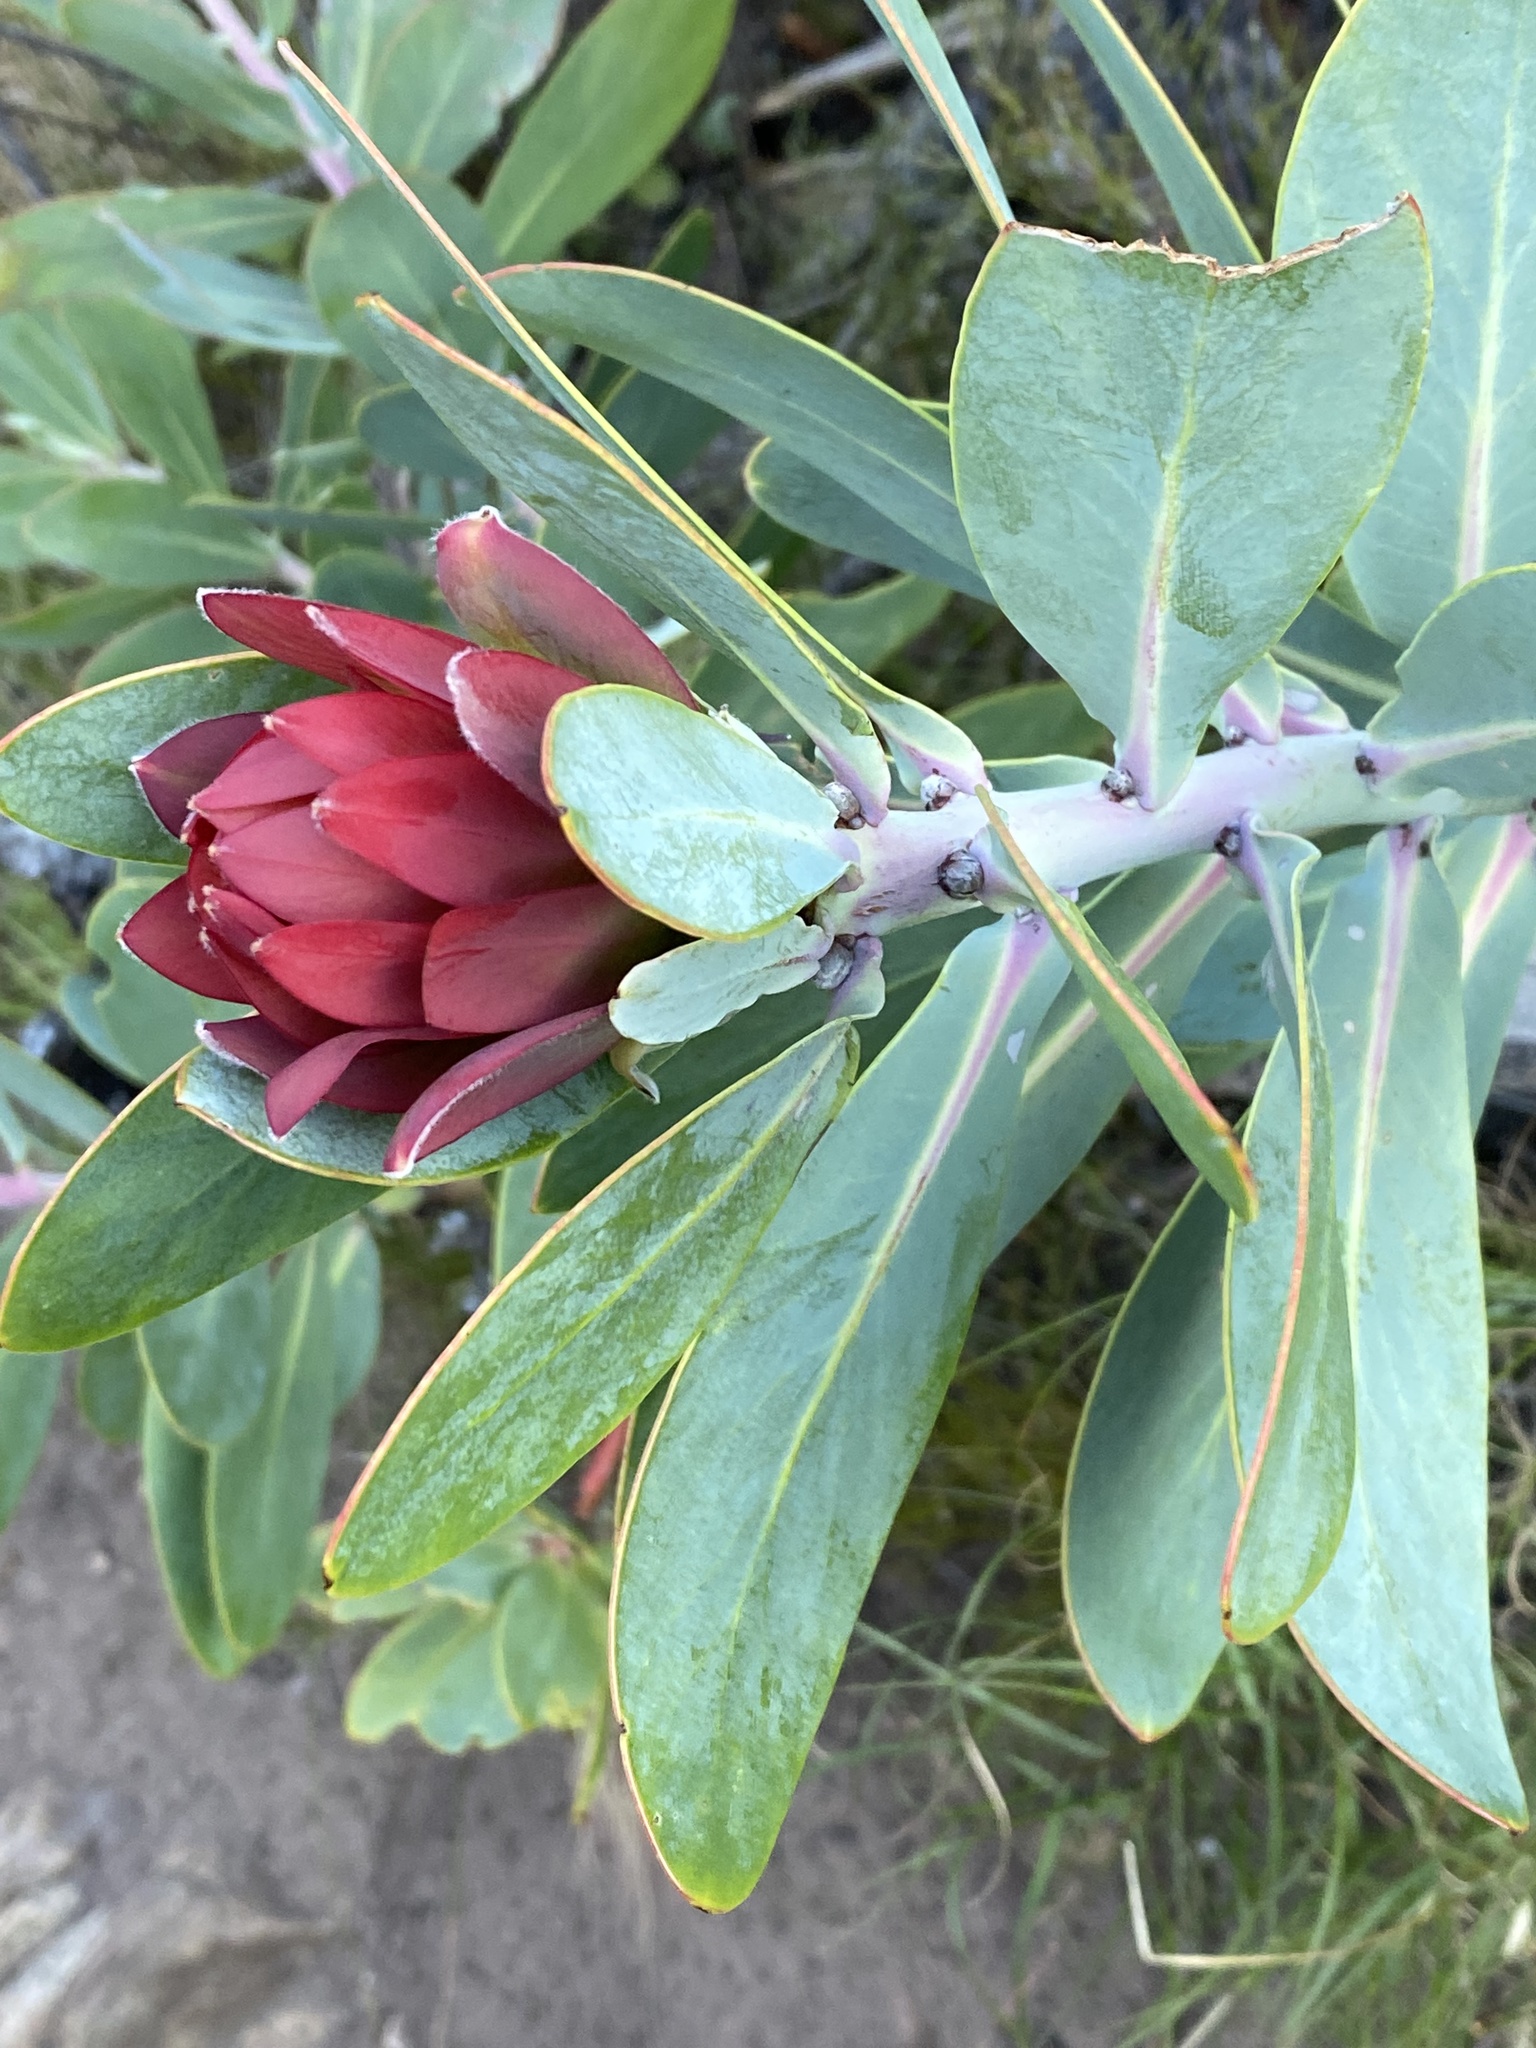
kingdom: Plantae
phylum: Tracheophyta
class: Magnoliopsida
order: Proteales
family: Proteaceae
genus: Protea
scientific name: Protea nitida
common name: Tree protea
